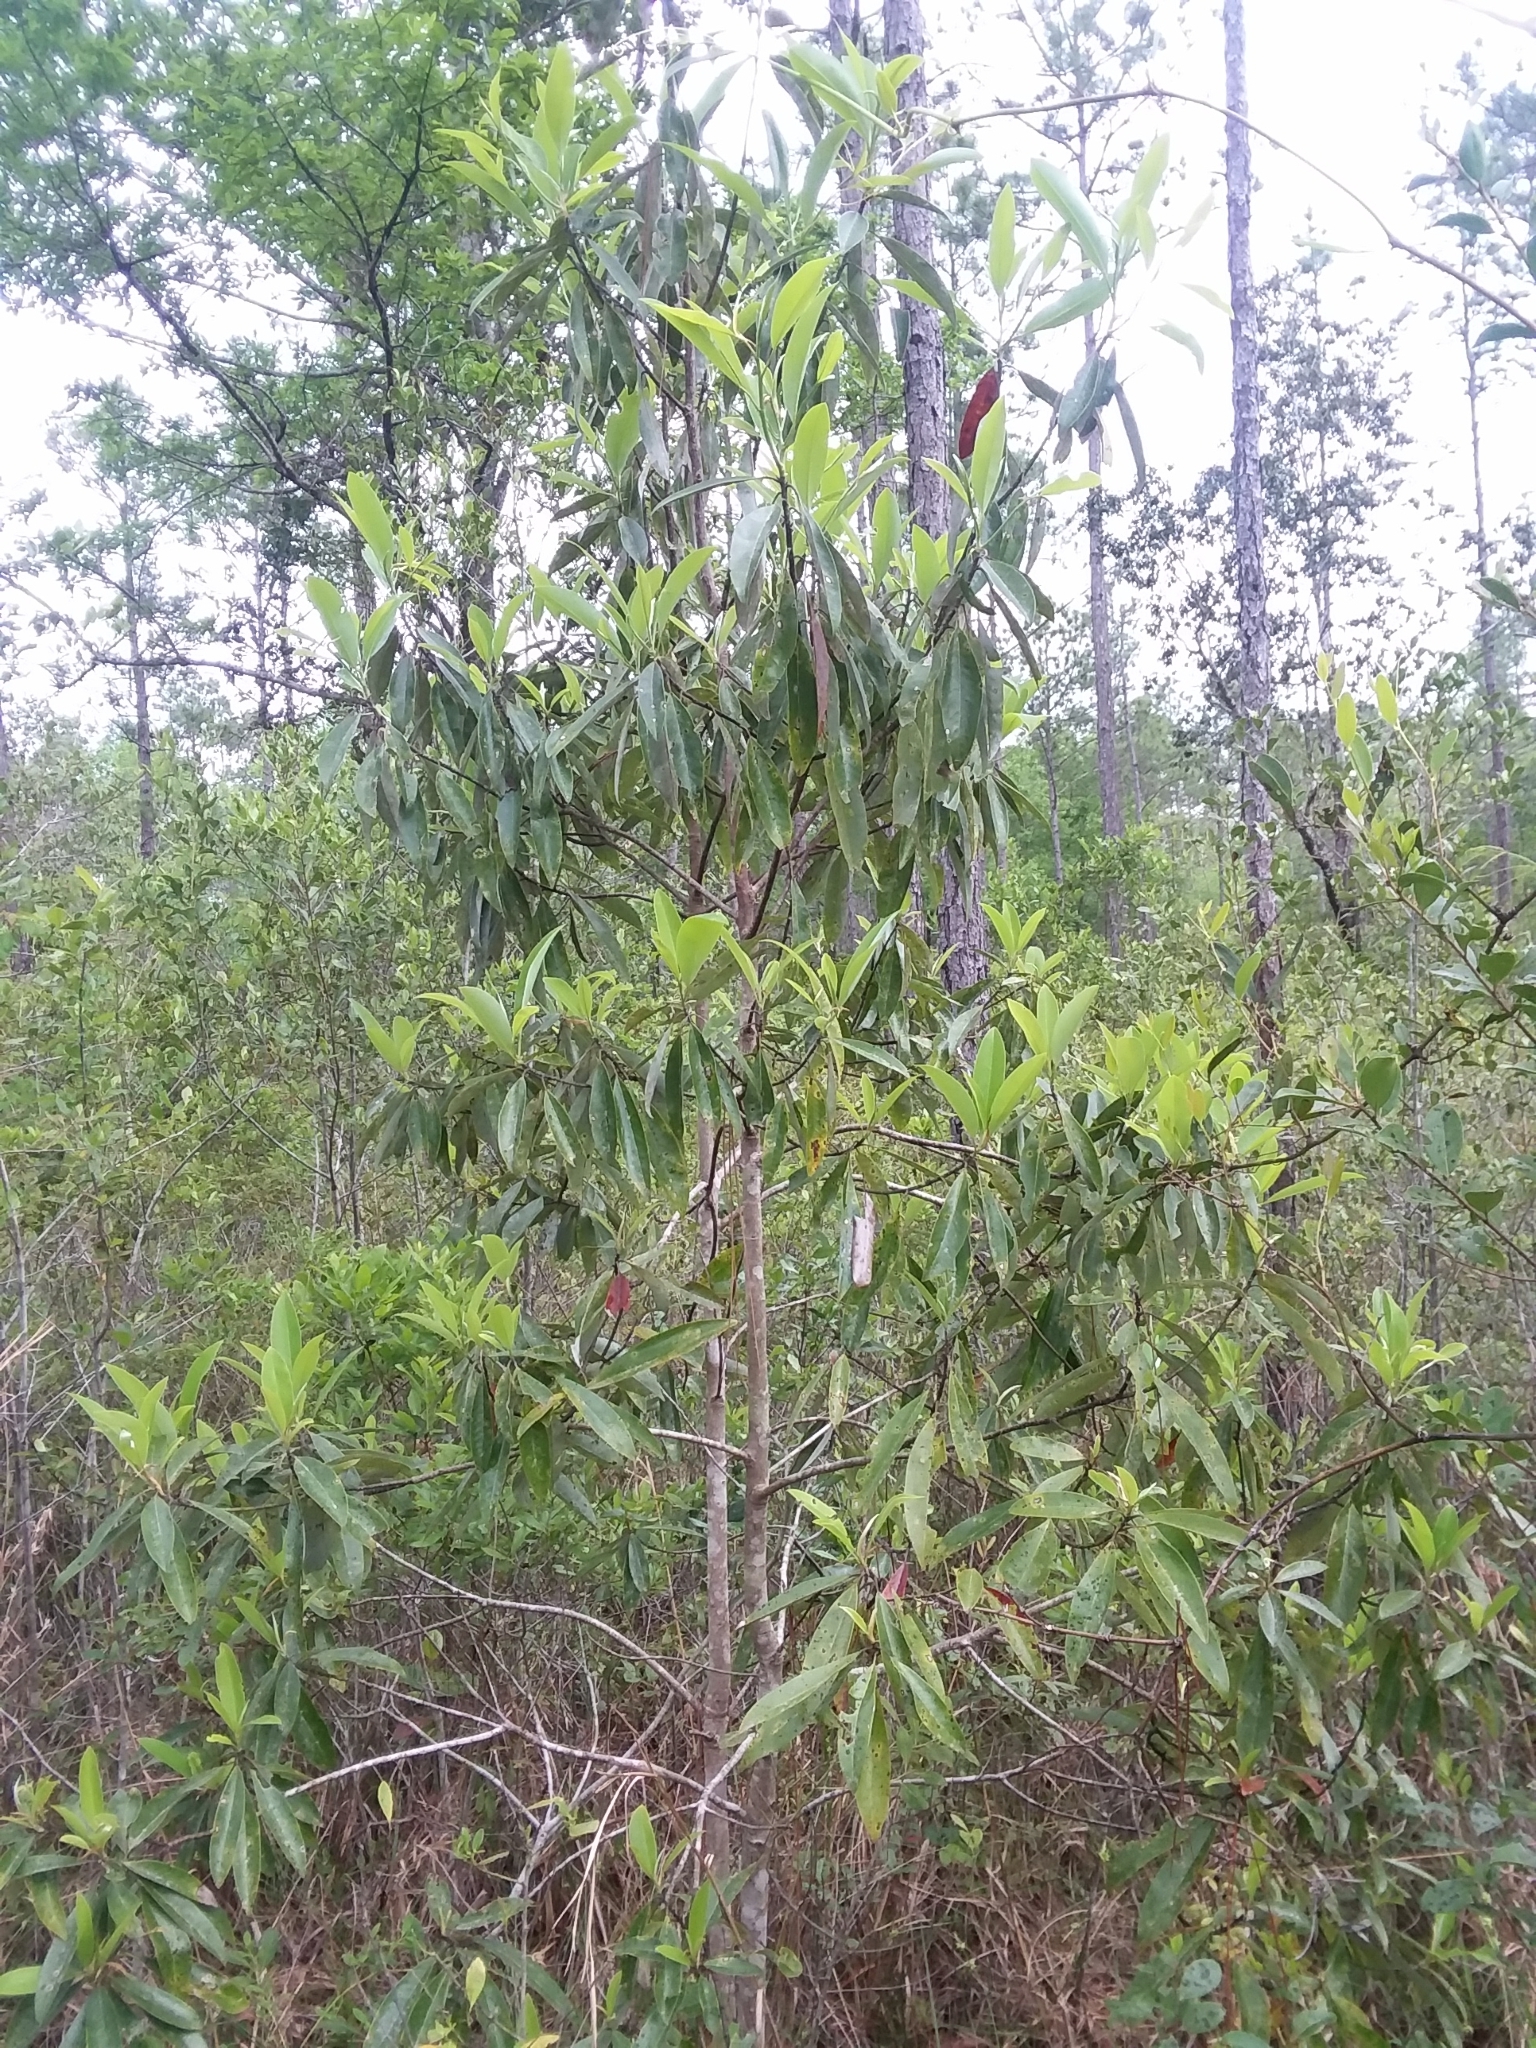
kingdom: Plantae
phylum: Tracheophyta
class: Magnoliopsida
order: Magnoliales
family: Magnoliaceae
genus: Magnolia
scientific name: Magnolia virginiana
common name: Swamp bay
